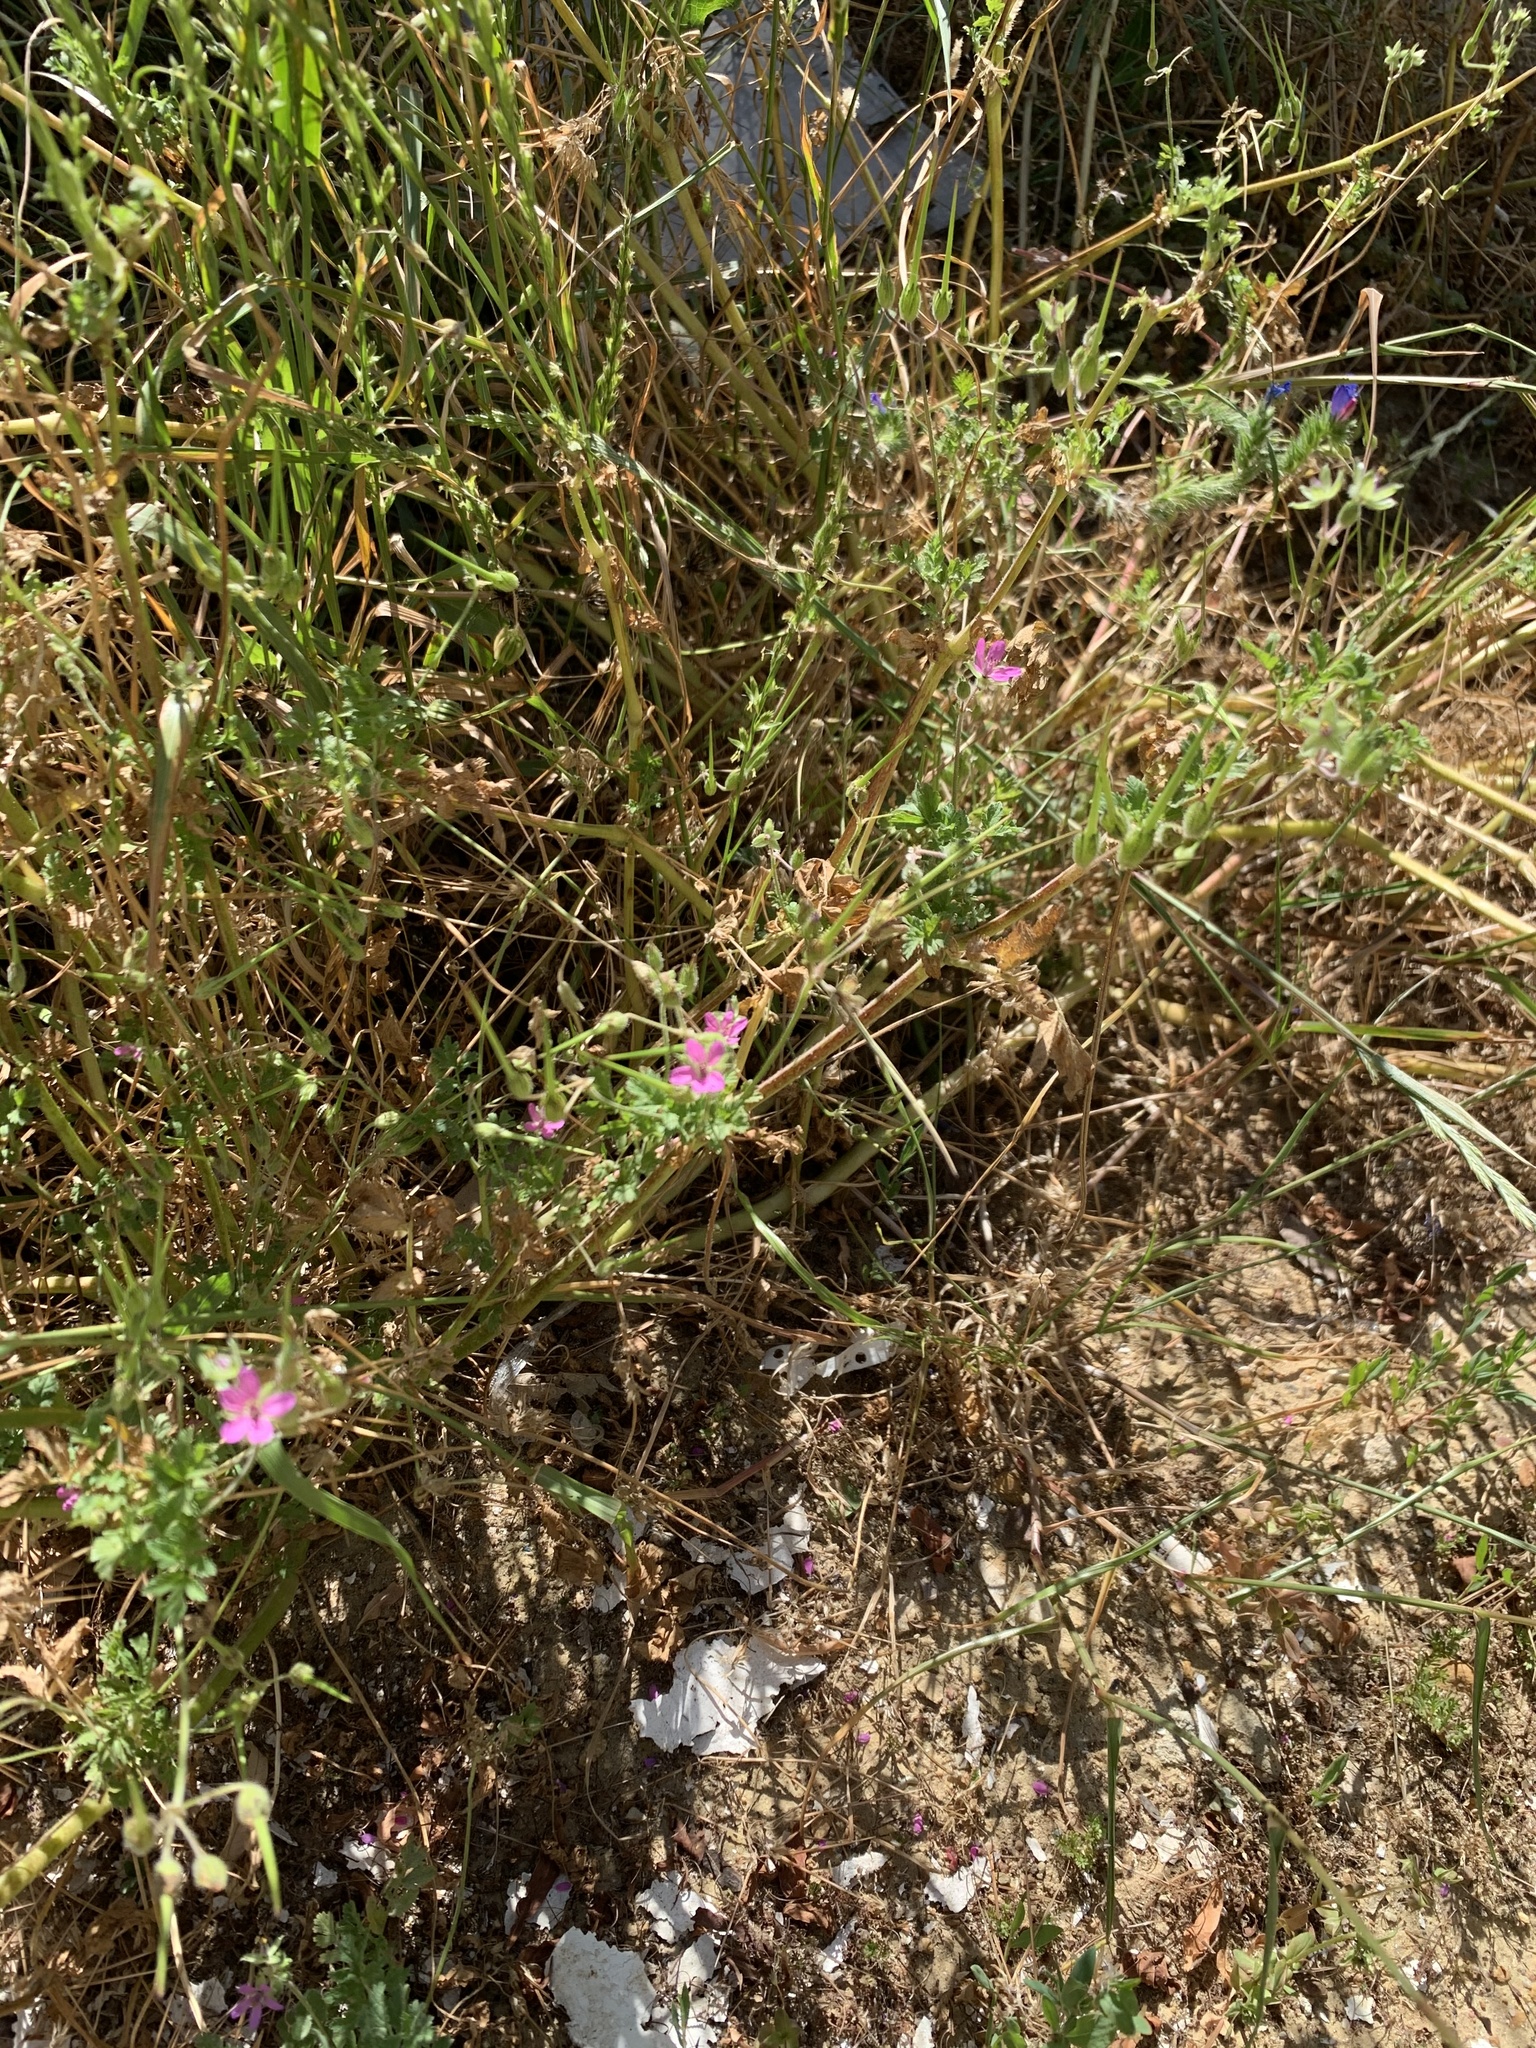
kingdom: Plantae
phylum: Tracheophyta
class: Magnoliopsida
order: Geraniales
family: Geraniaceae
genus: Erodium
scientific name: Erodium moschatum
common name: Musk stork's-bill
